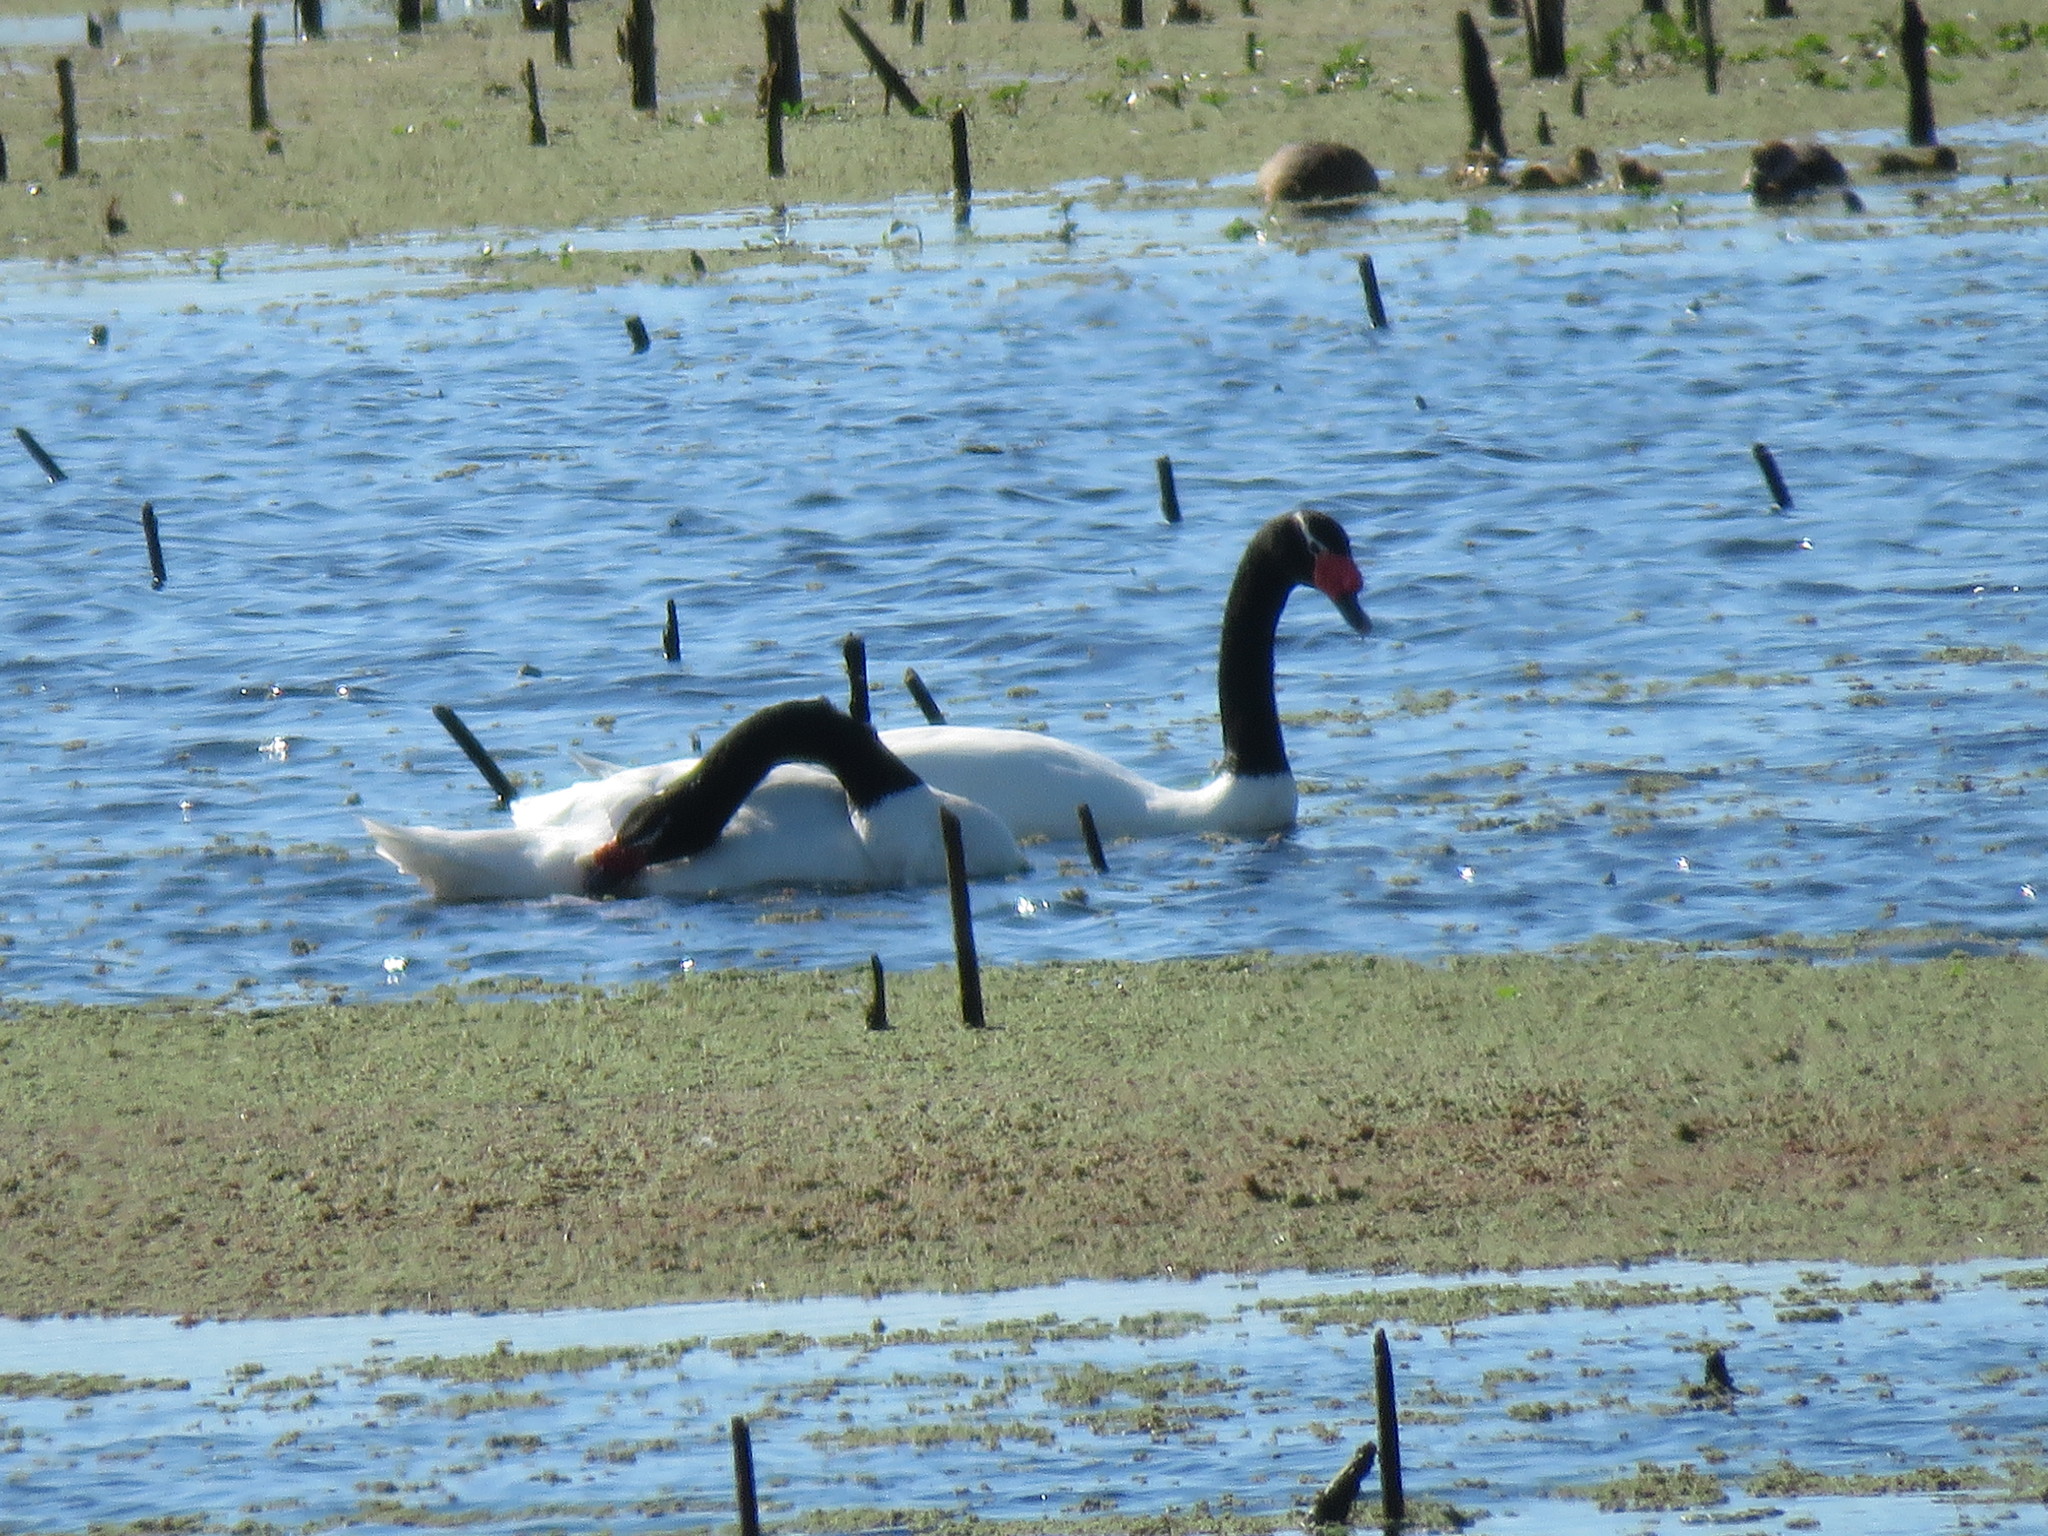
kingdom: Animalia
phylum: Chordata
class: Aves
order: Anseriformes
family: Anatidae
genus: Cygnus
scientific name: Cygnus melancoryphus
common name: Black-necked swan
